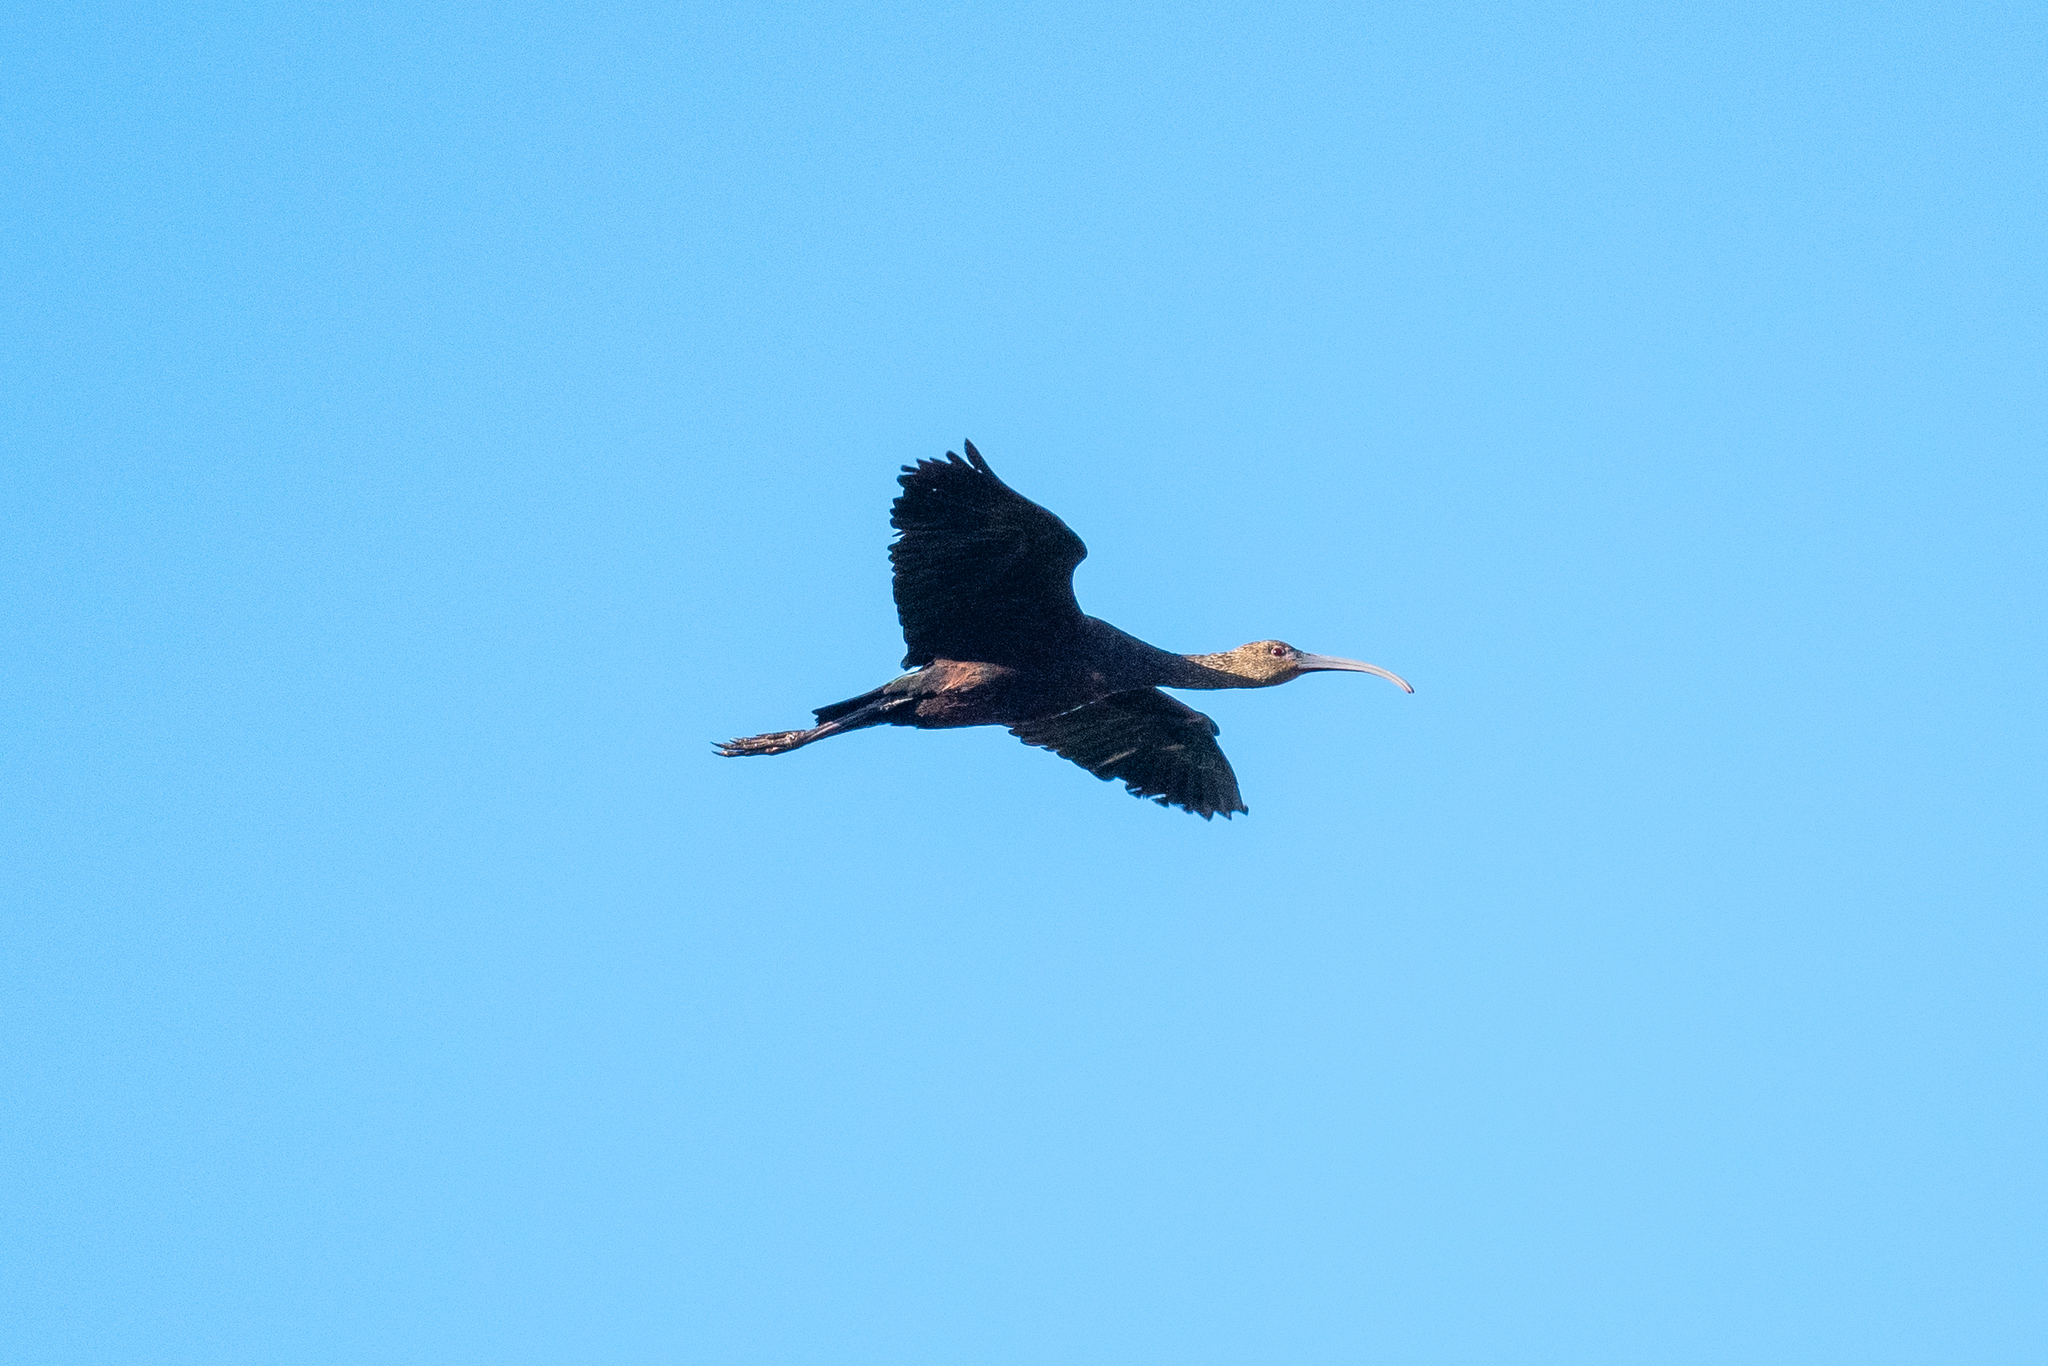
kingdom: Animalia
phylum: Chordata
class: Aves
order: Pelecaniformes
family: Threskiornithidae
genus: Plegadis
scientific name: Plegadis chihi
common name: White-faced ibis
